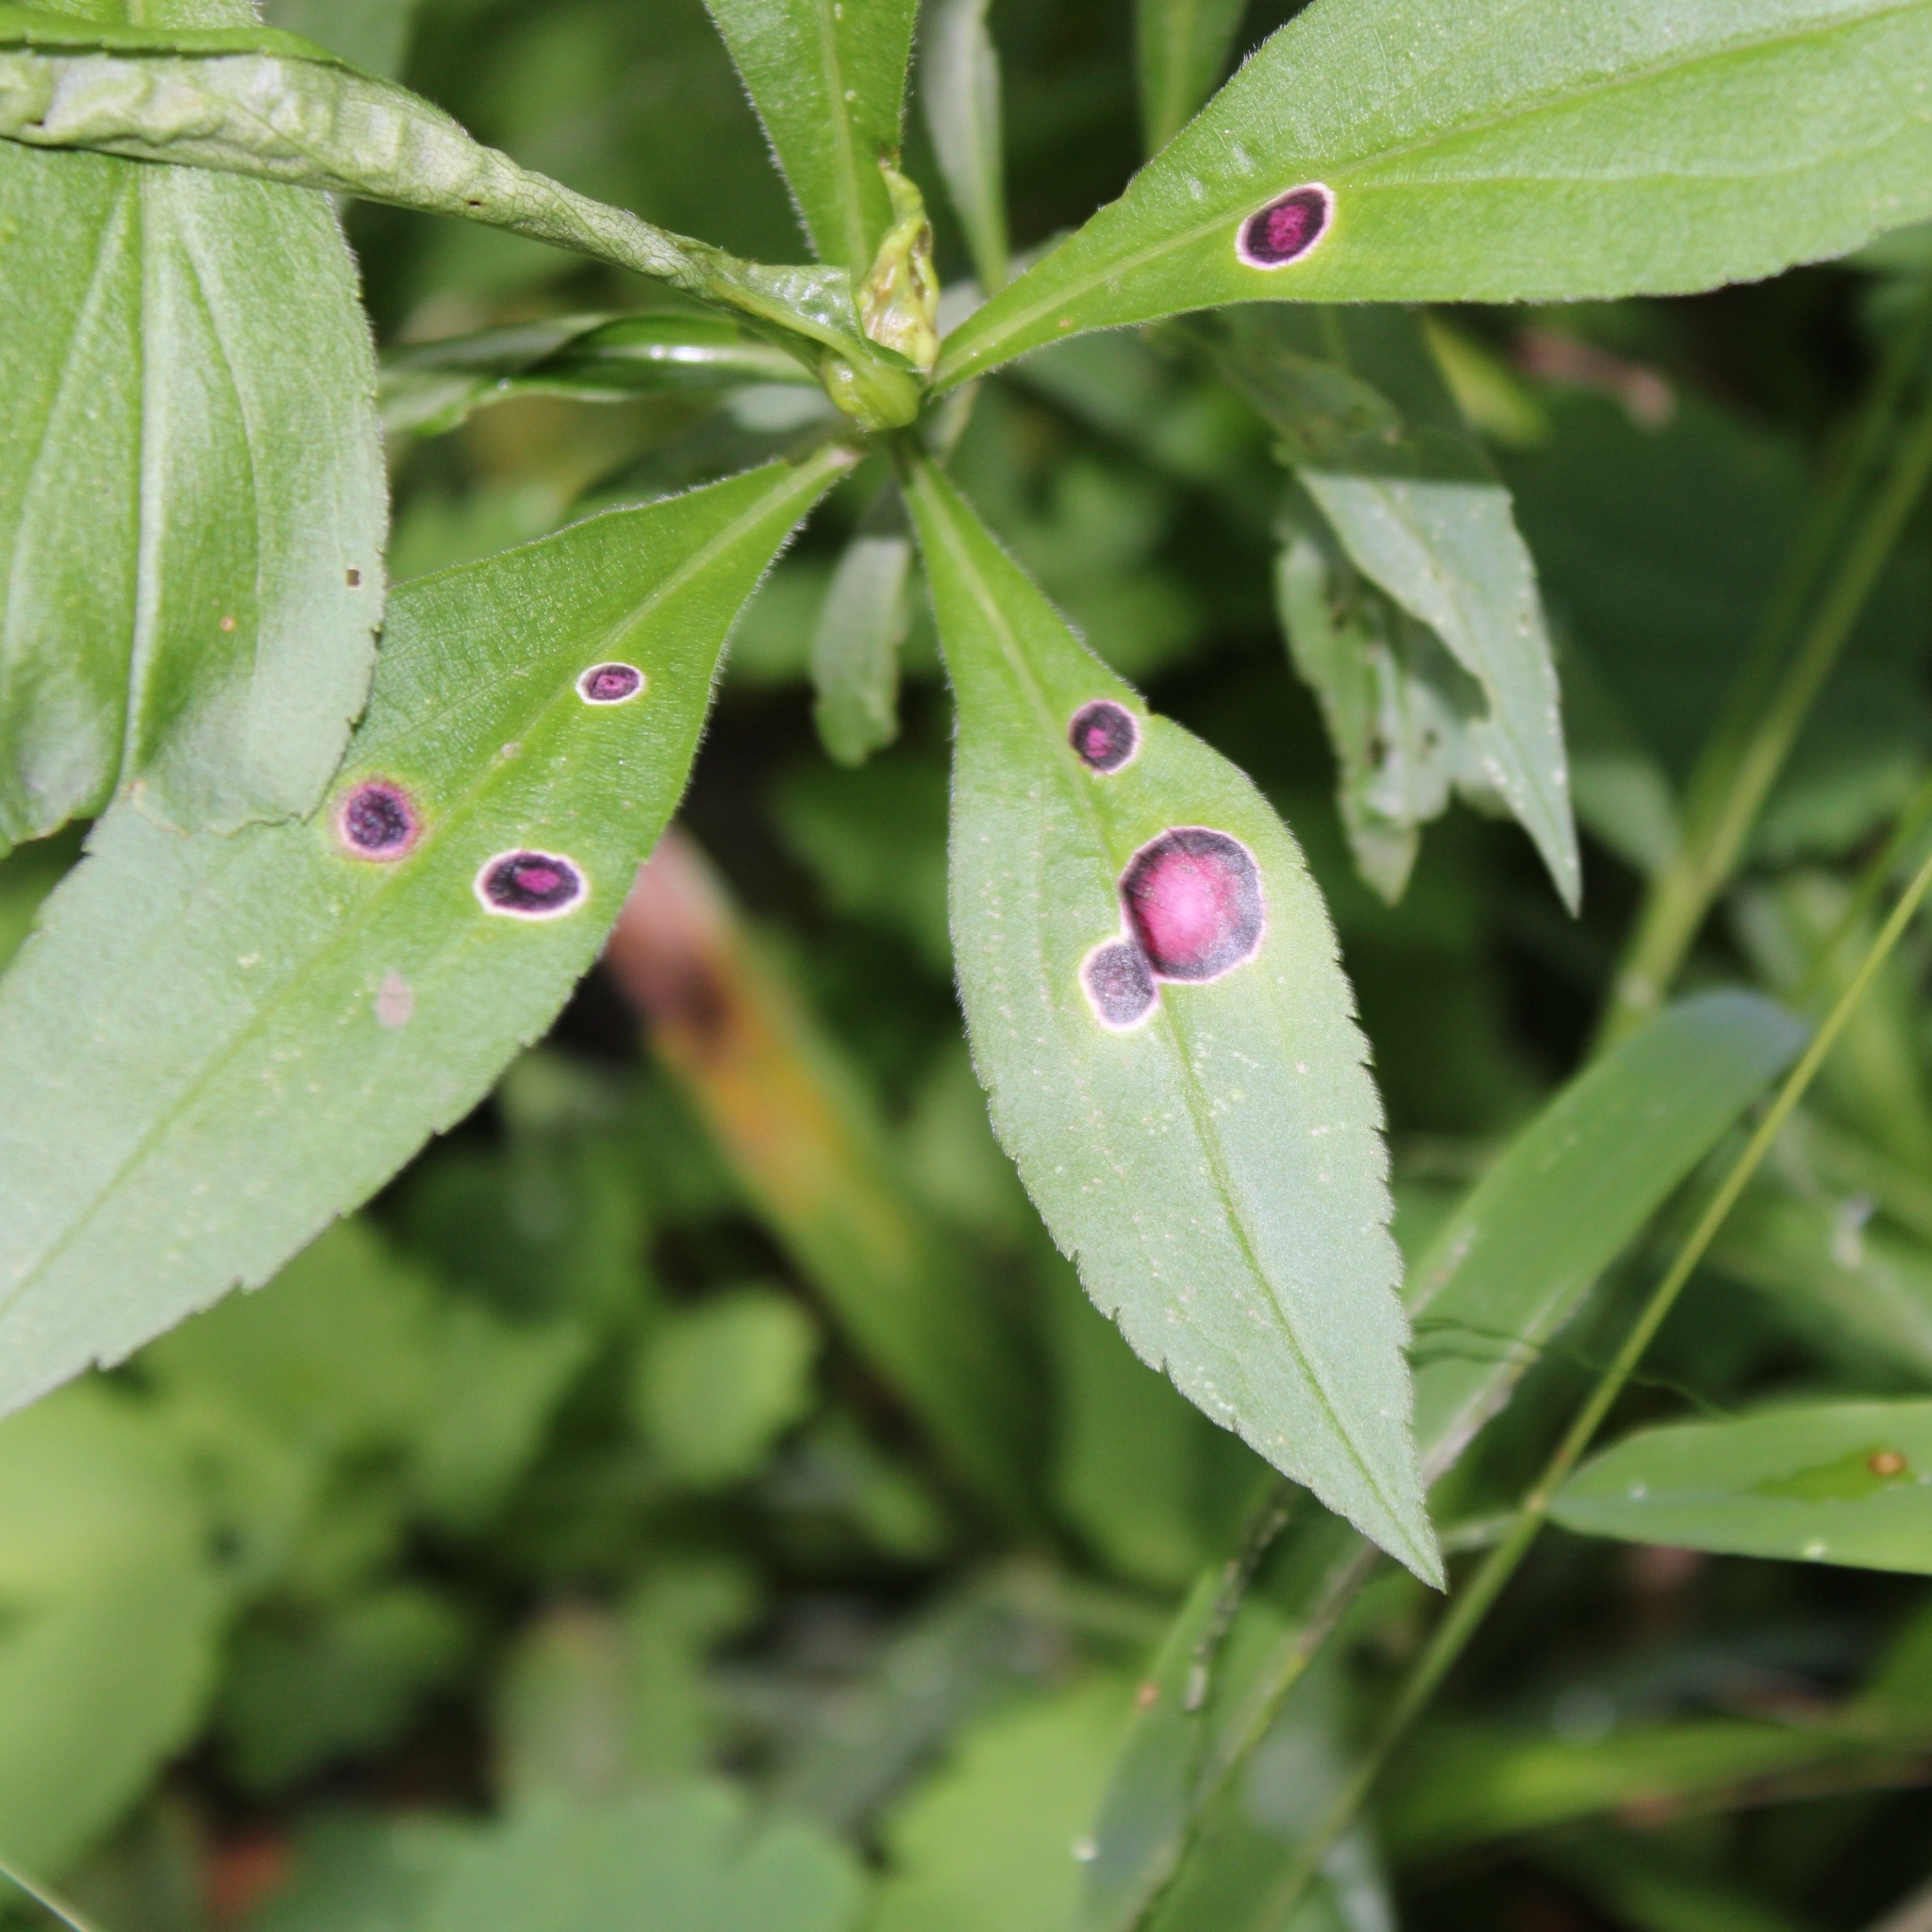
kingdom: Animalia
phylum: Arthropoda
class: Insecta
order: Diptera
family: Cecidomyiidae
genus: Asteromyia
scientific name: Asteromyia carbonifera
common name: Carbonifera goldenrod gall midge
